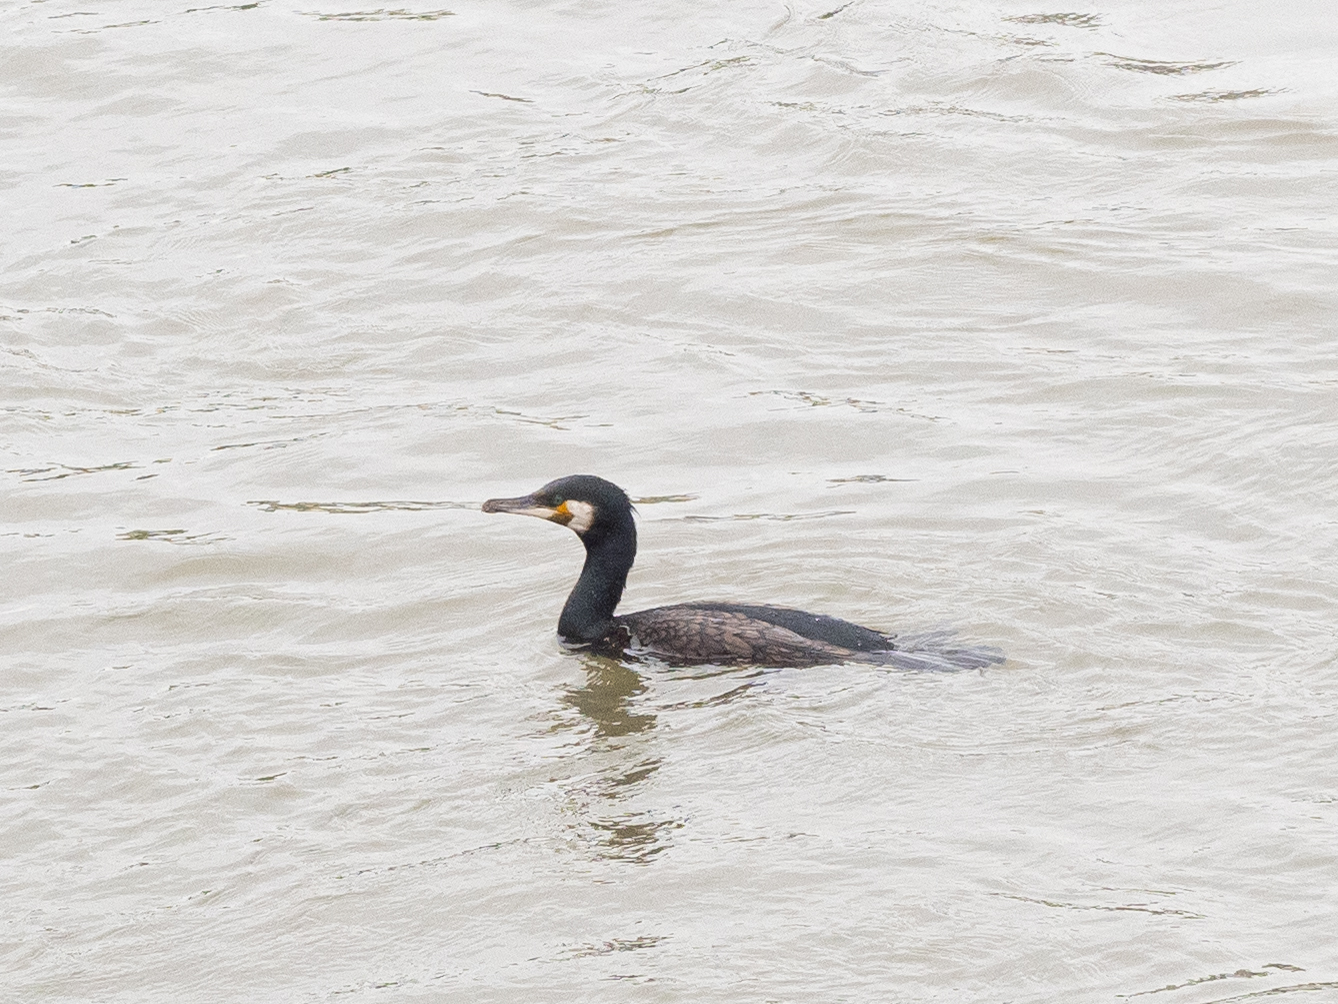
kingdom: Animalia
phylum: Chordata
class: Aves
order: Suliformes
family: Phalacrocoracidae
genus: Phalacrocorax
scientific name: Phalacrocorax carbo
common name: Great cormorant
